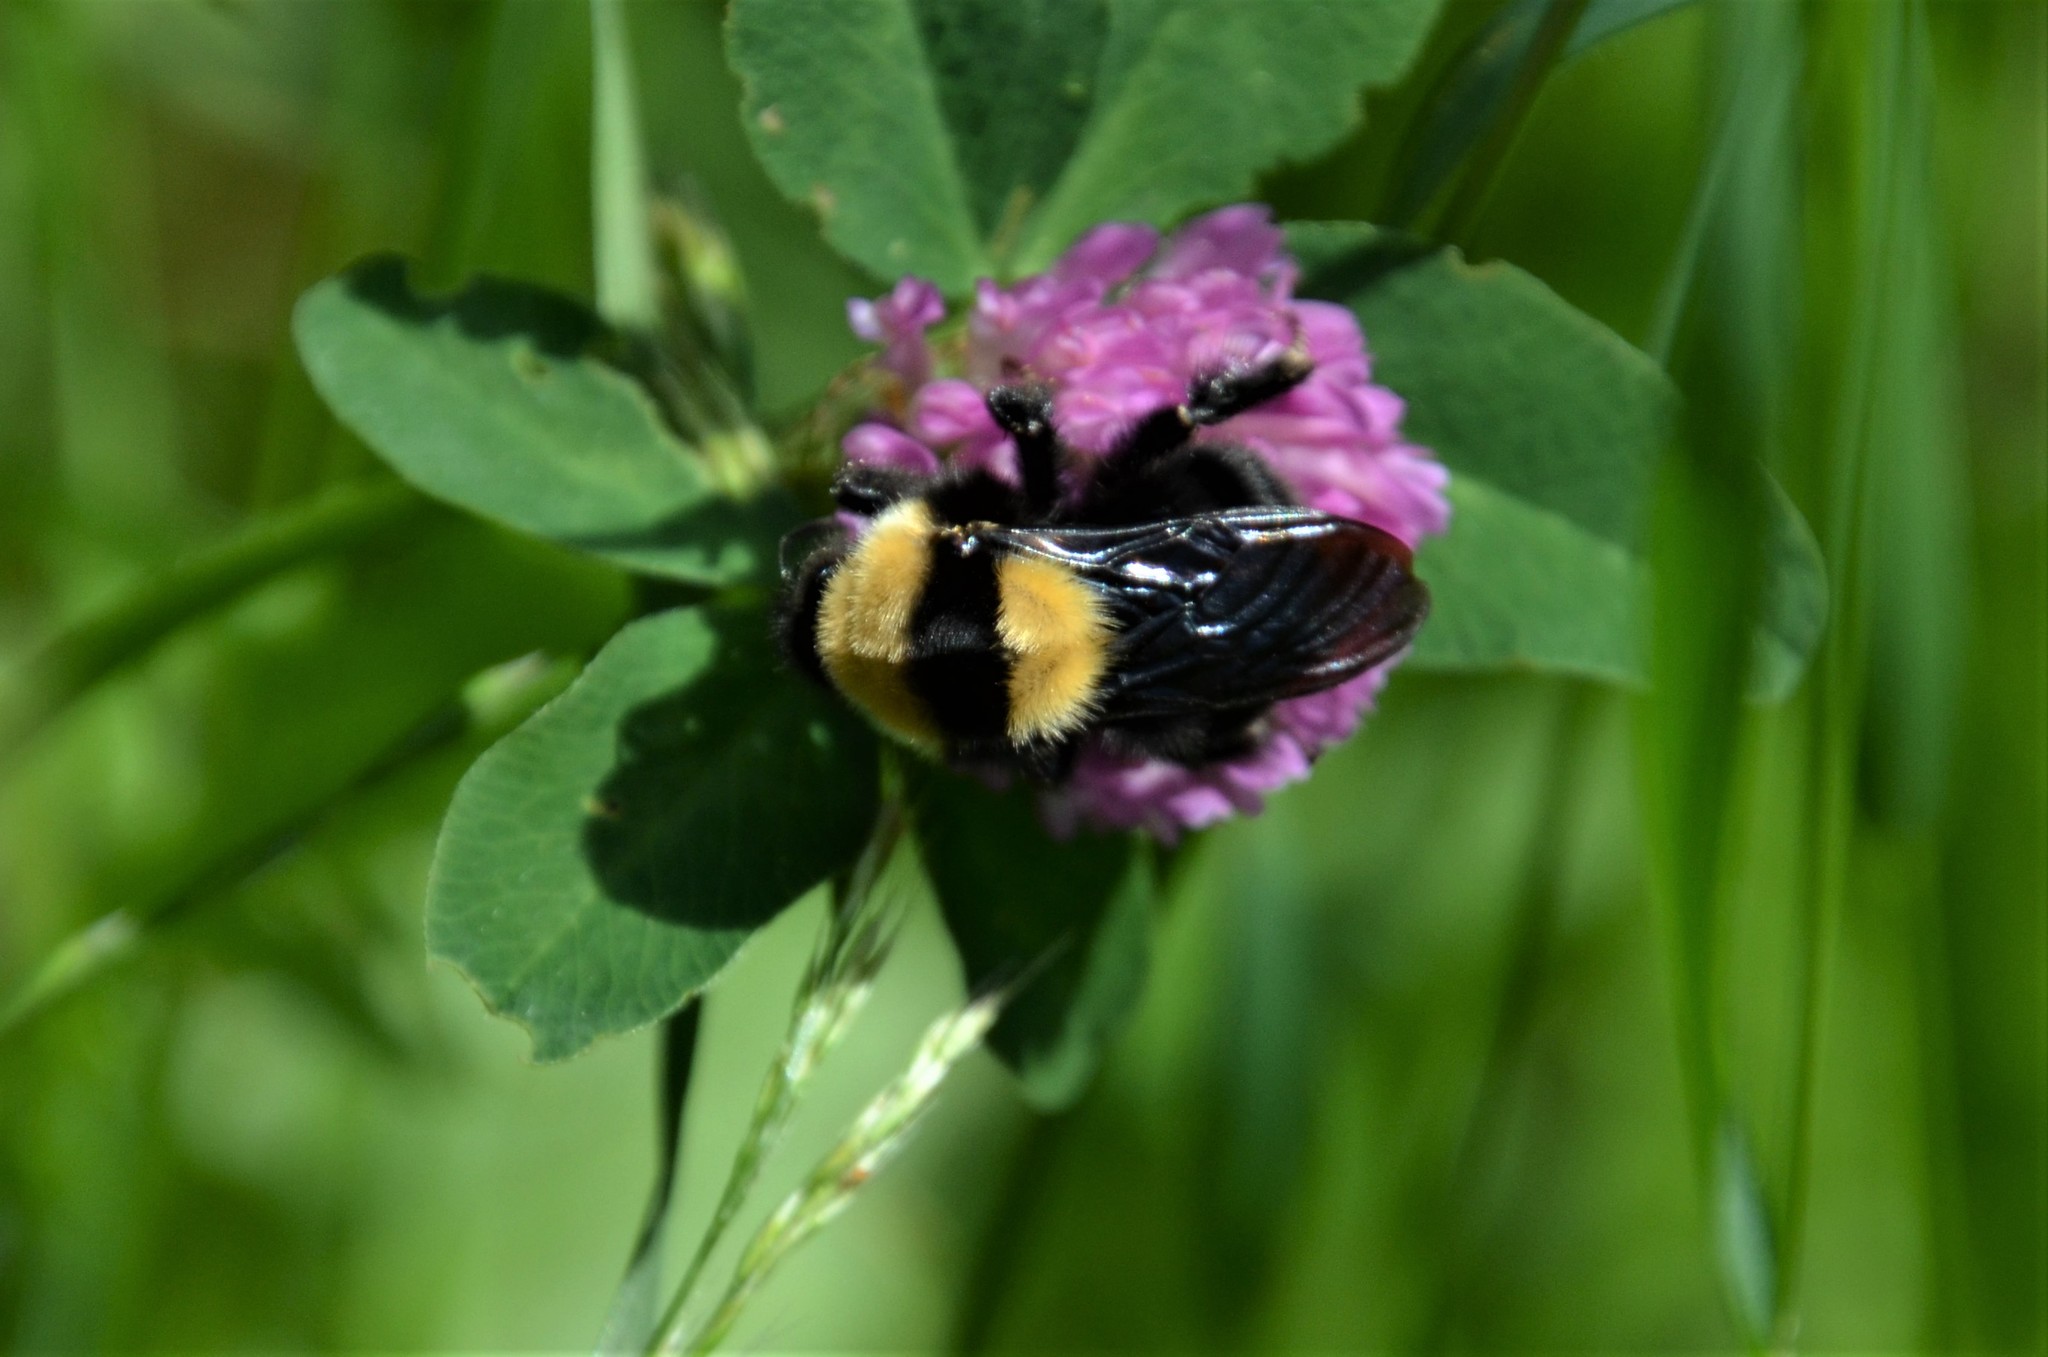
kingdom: Animalia
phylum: Arthropoda
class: Insecta
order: Hymenoptera
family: Apidae
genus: Bombus
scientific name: Bombus argillaceus
